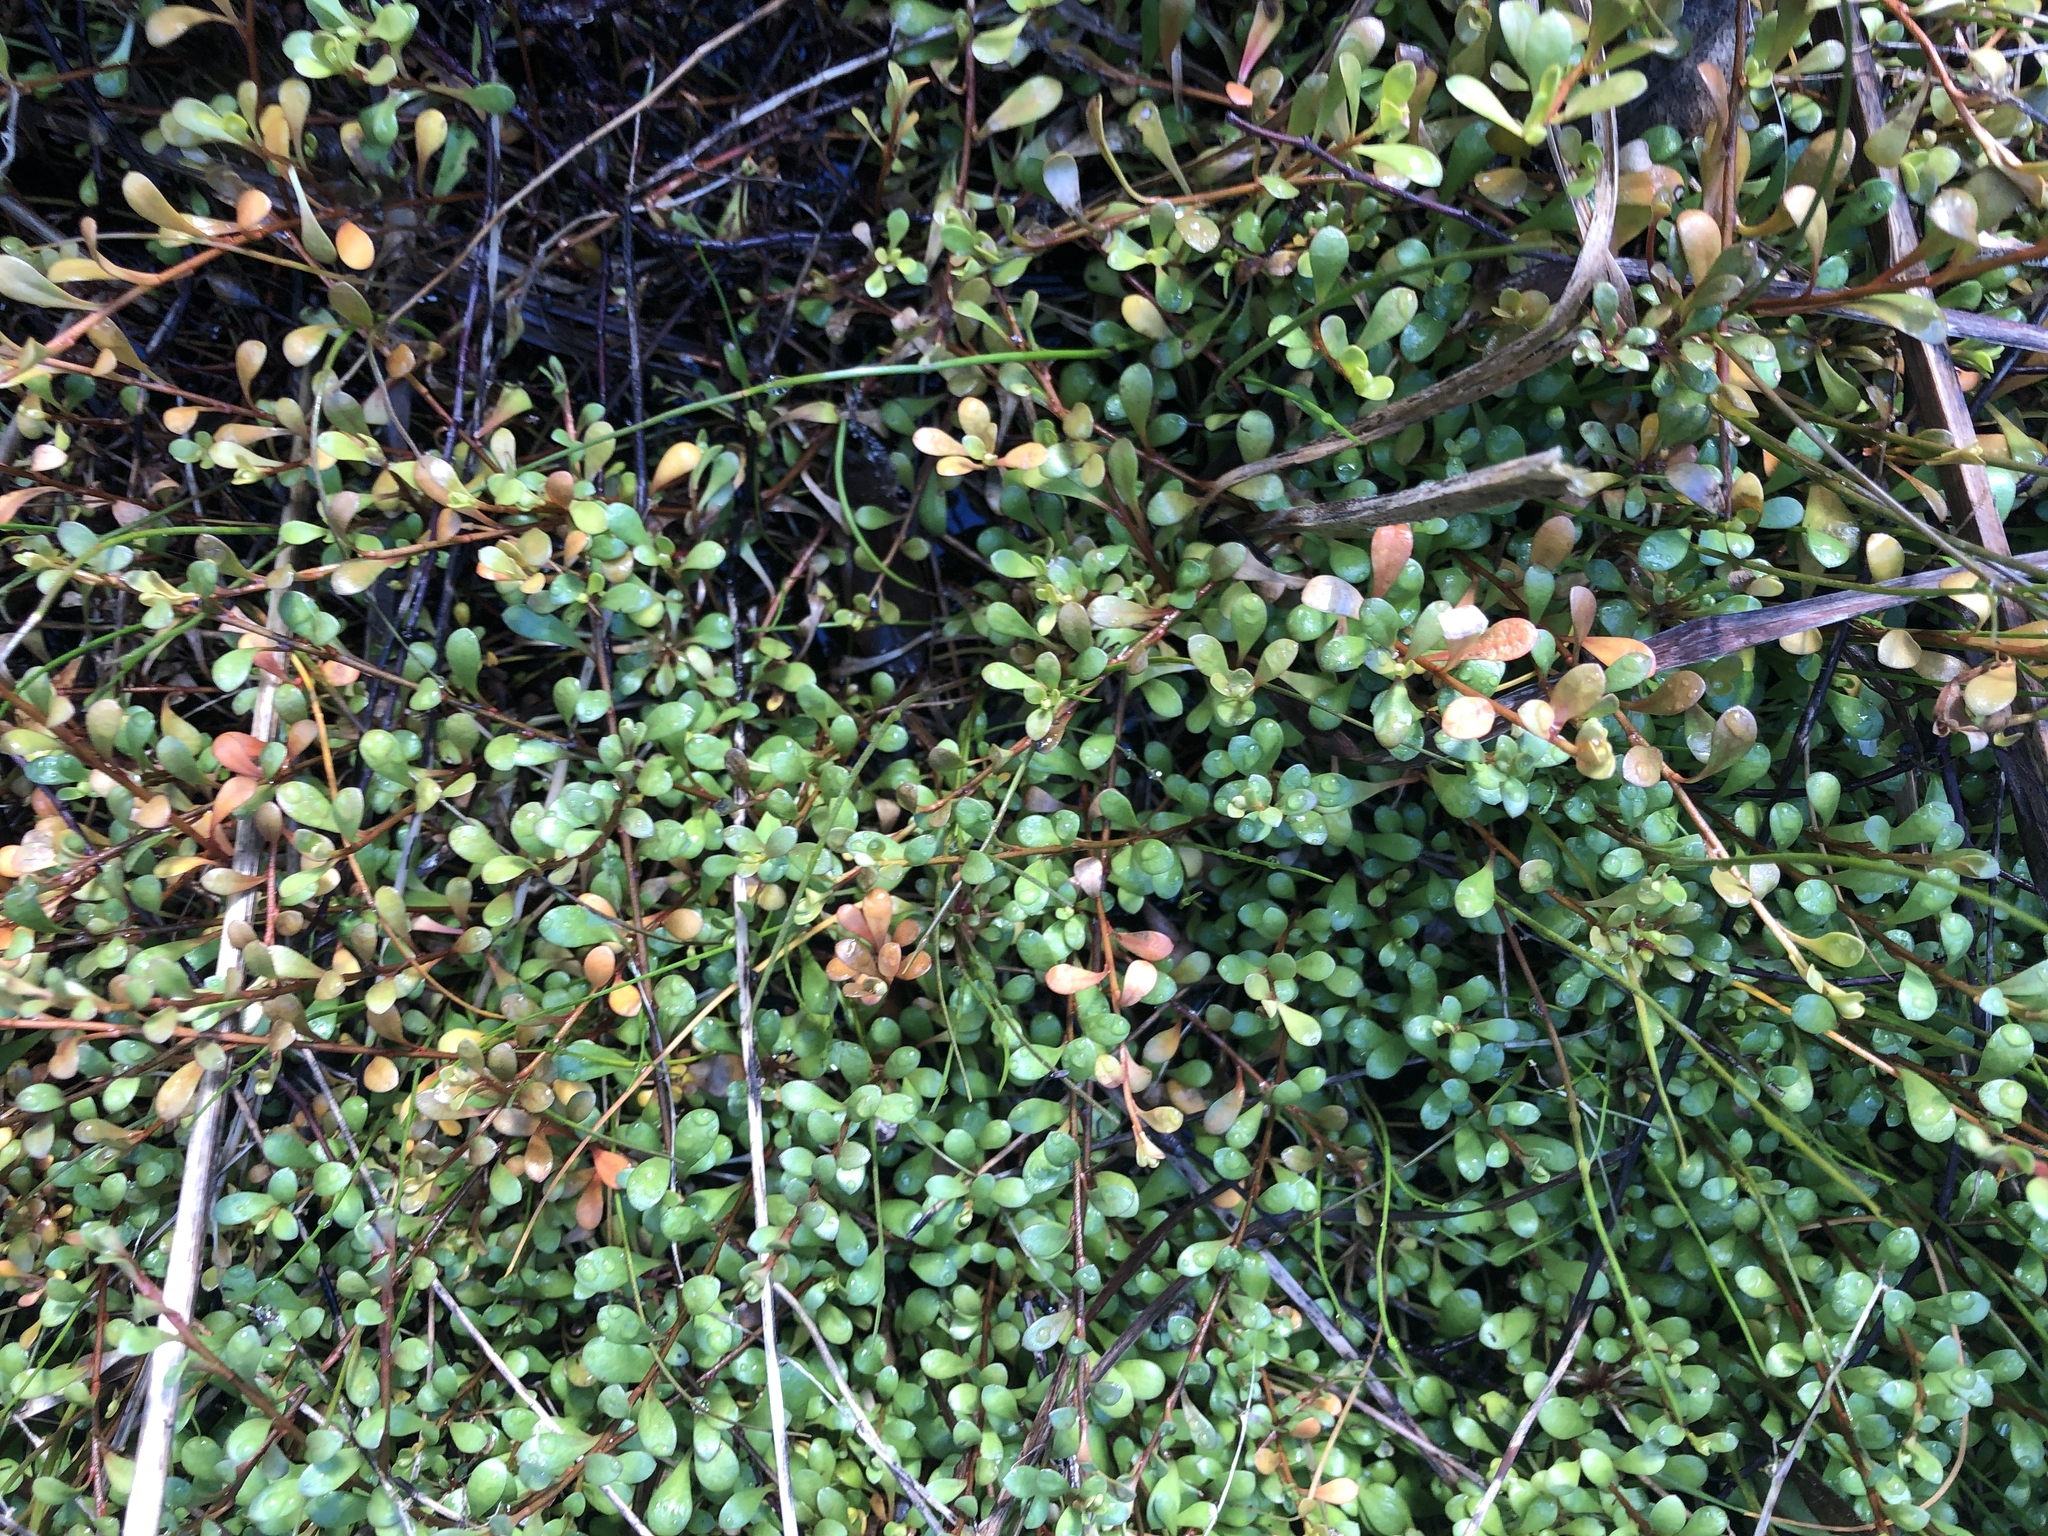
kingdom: Plantae
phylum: Tracheophyta
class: Magnoliopsida
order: Asterales
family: Goodeniaceae
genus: Goodenia
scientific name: Goodenia radicans
